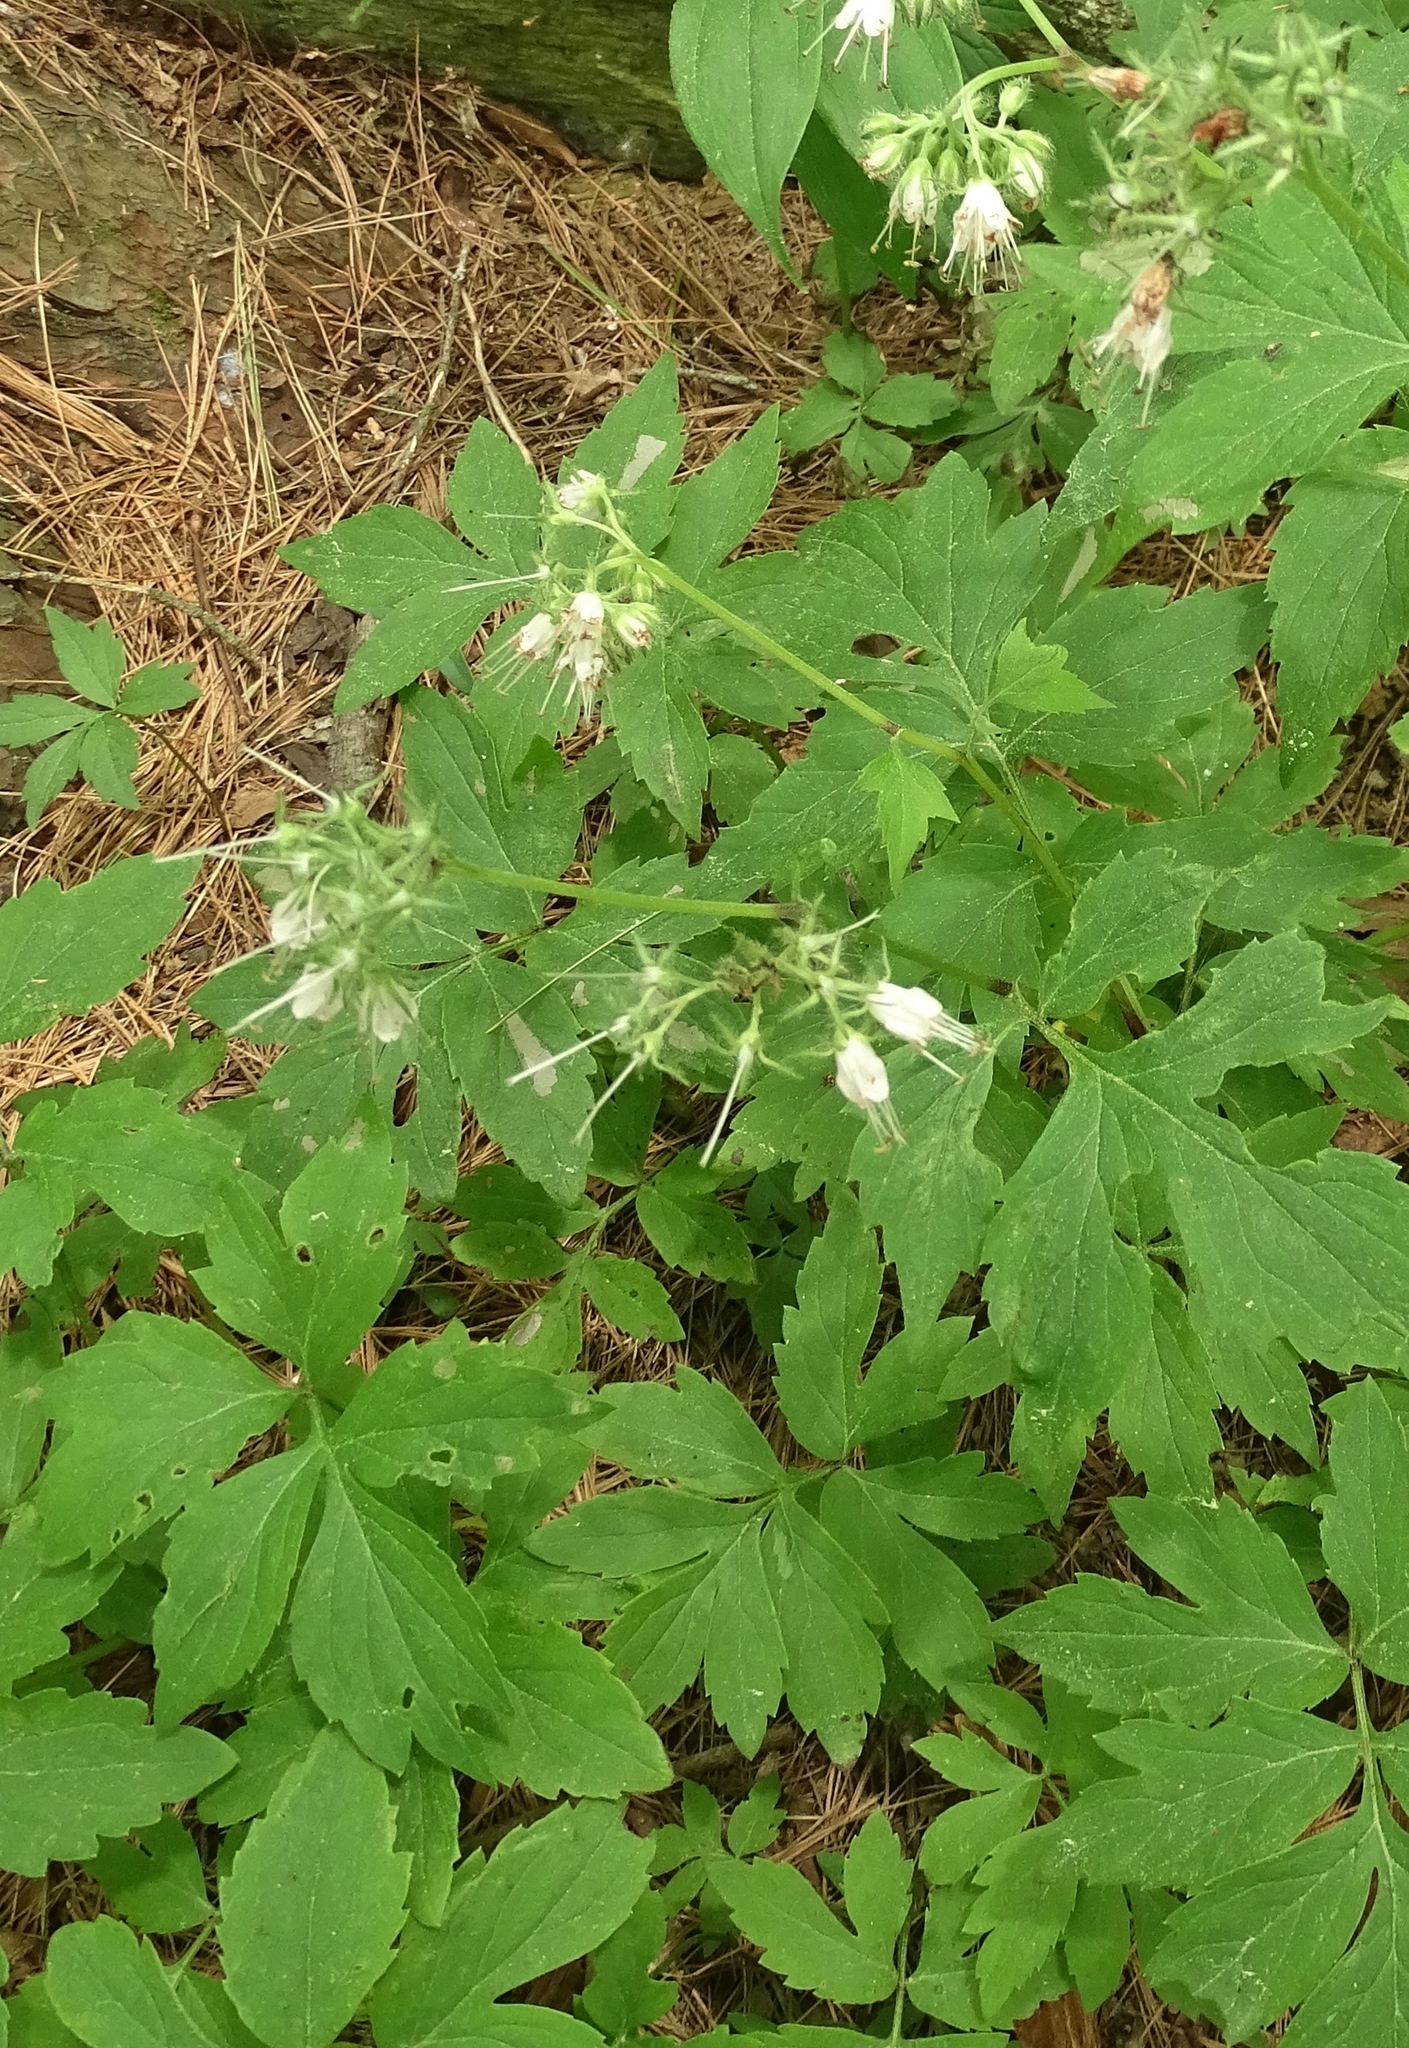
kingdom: Plantae
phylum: Tracheophyta
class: Magnoliopsida
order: Boraginales
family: Hydrophyllaceae
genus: Hydrophyllum
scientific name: Hydrophyllum virginianum
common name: Virginia waterleaf
